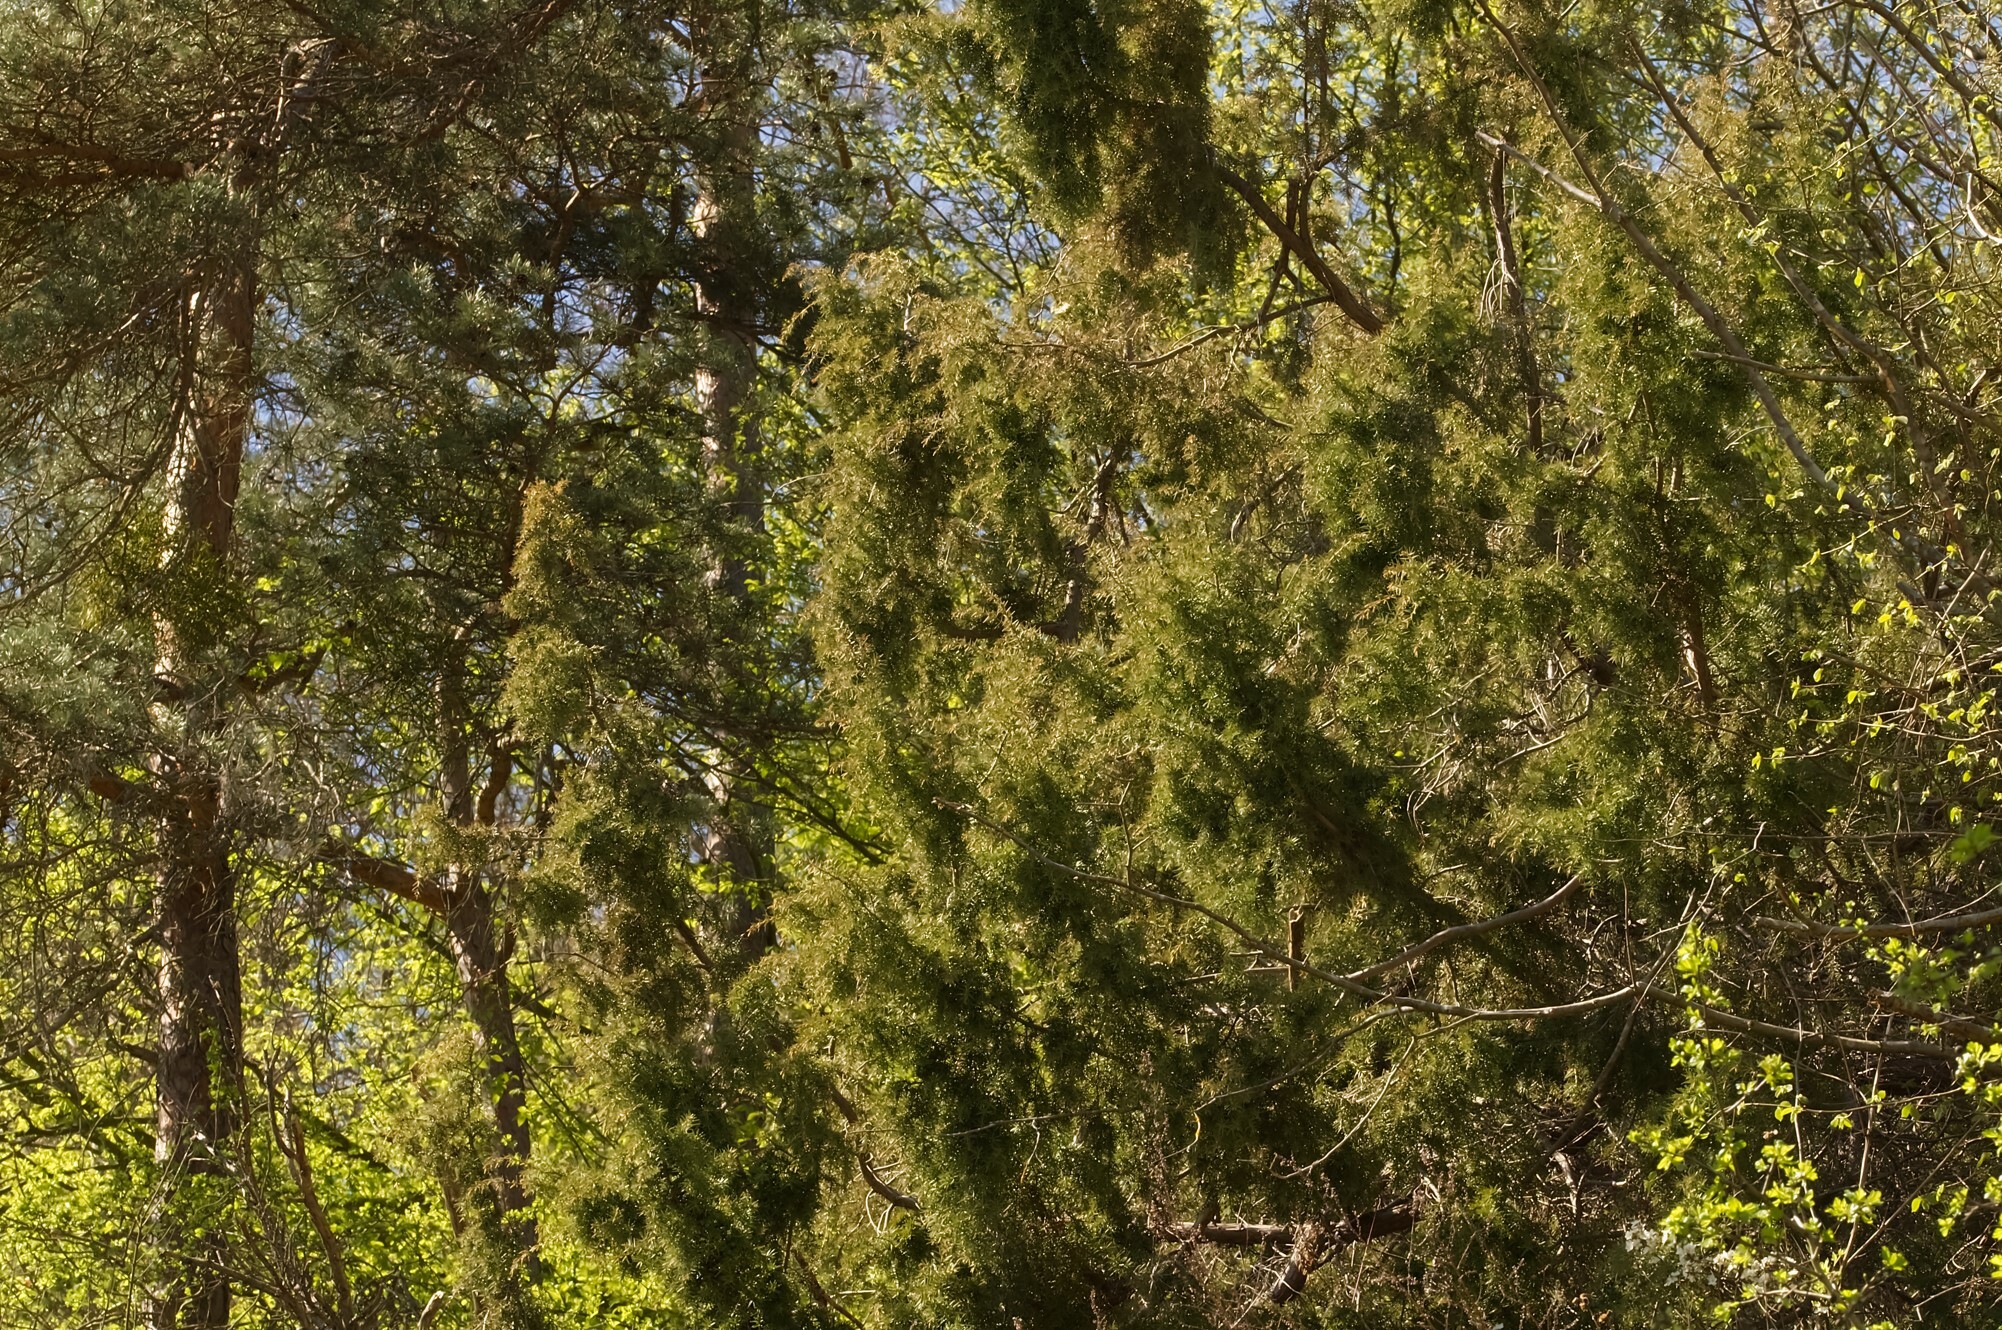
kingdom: Plantae
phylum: Tracheophyta
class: Pinopsida
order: Pinales
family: Cupressaceae
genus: Juniperus
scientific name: Juniperus communis
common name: Common juniper
